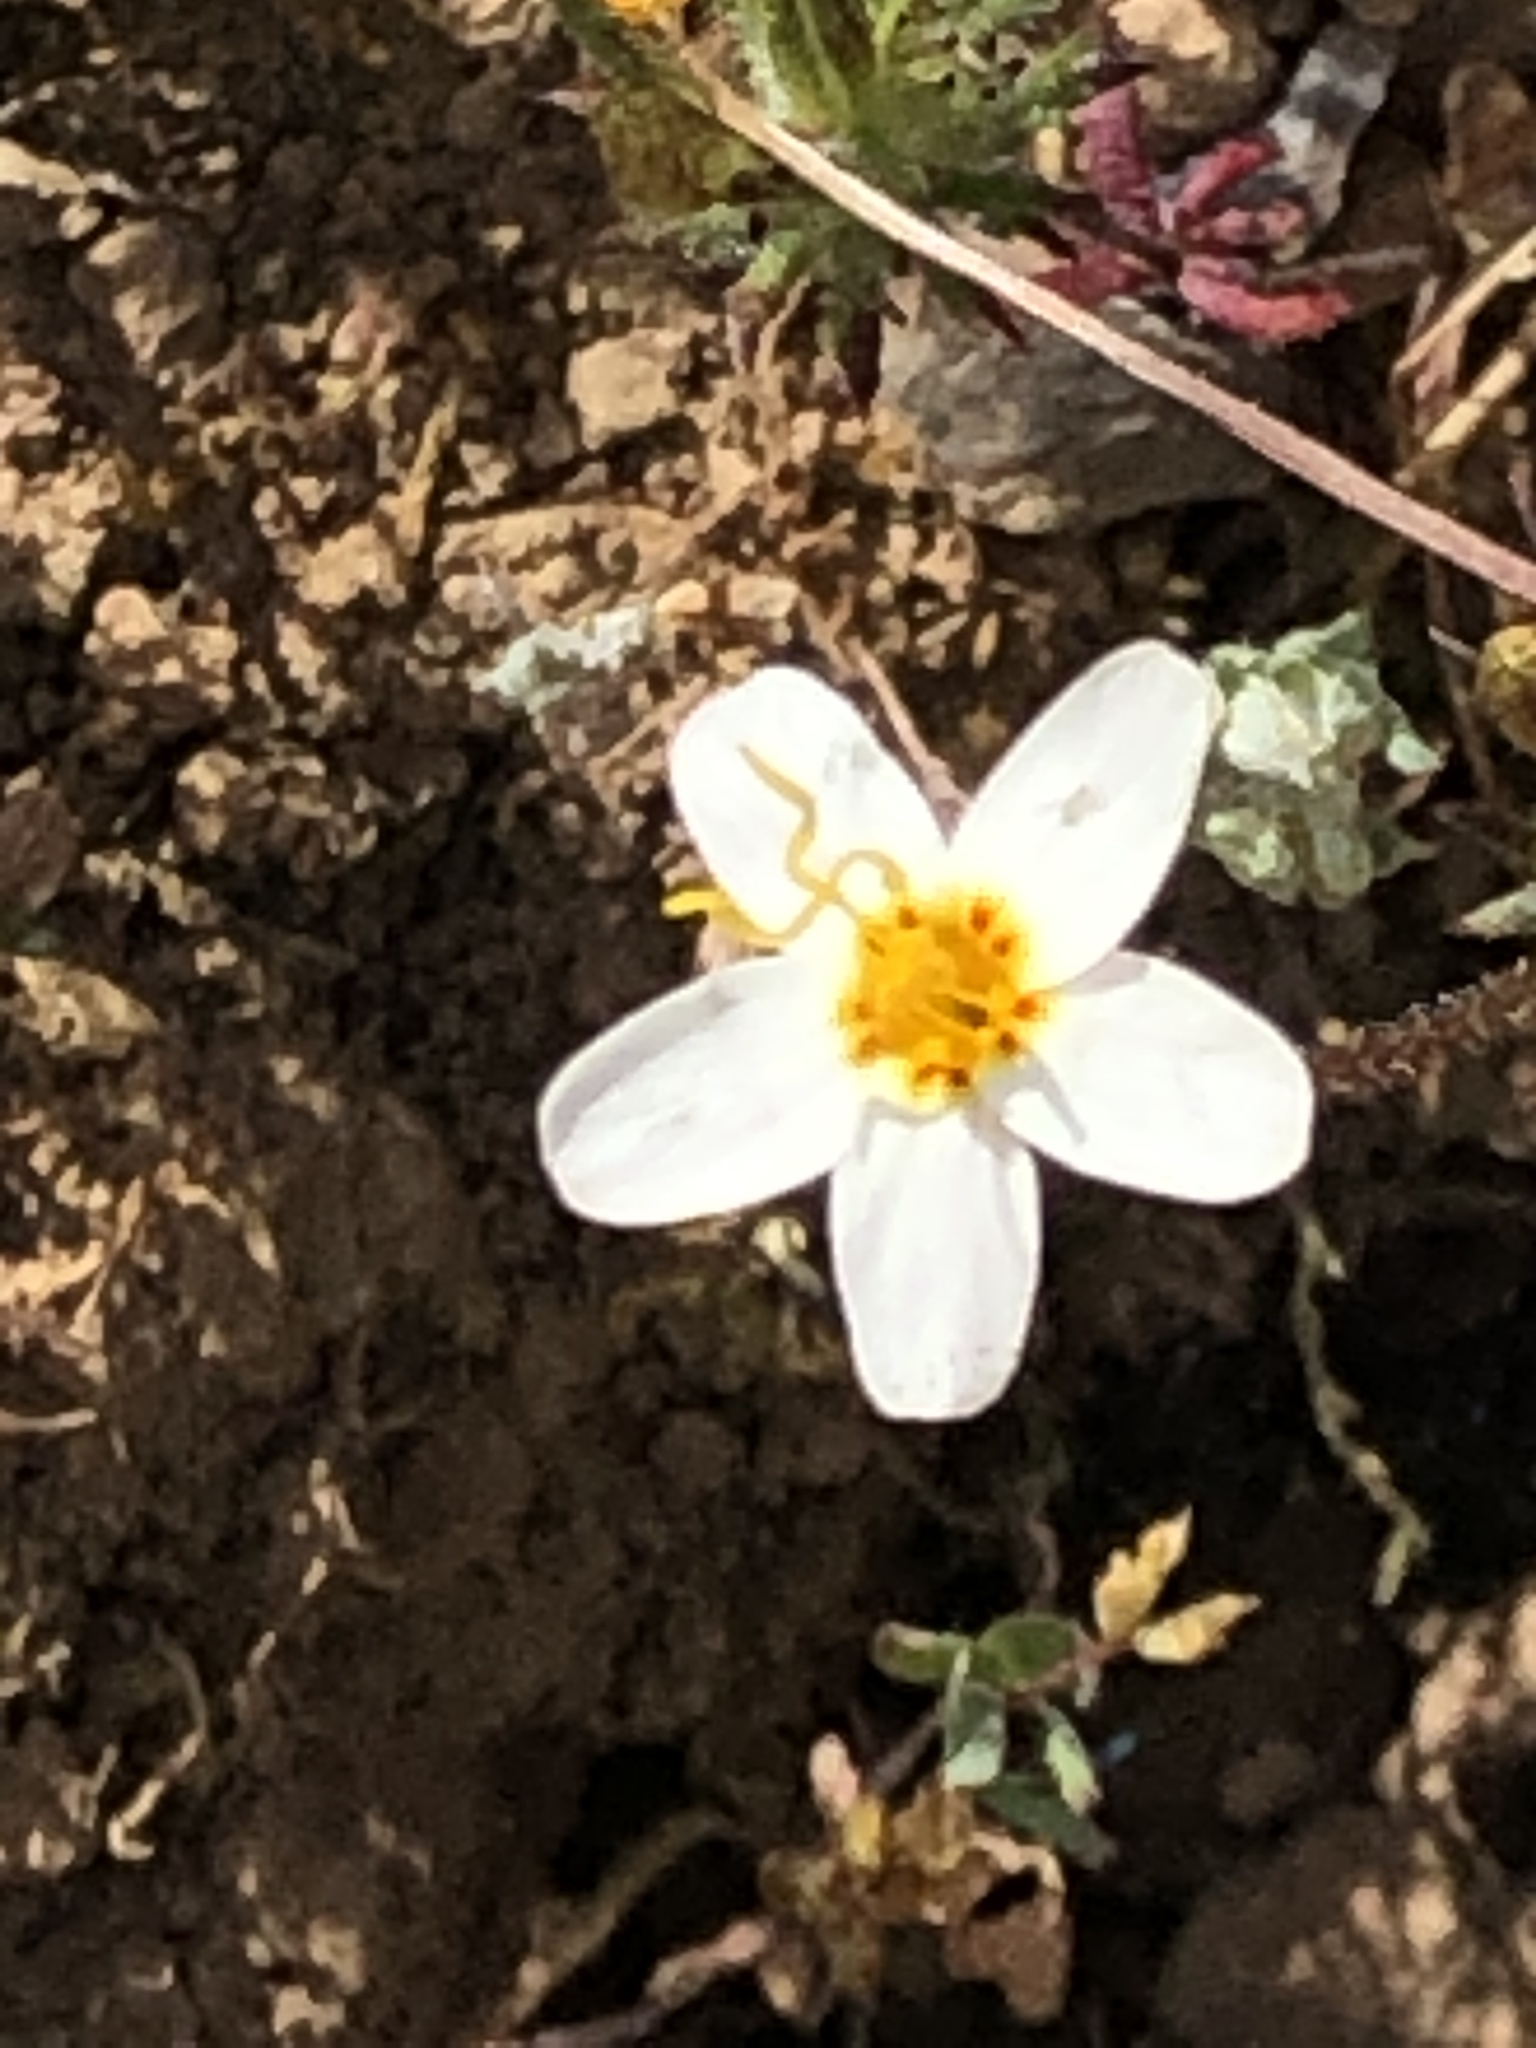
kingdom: Plantae
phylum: Tracheophyta
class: Magnoliopsida
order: Ericales
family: Polemoniaceae
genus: Leptosiphon
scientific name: Leptosiphon parviflorus
